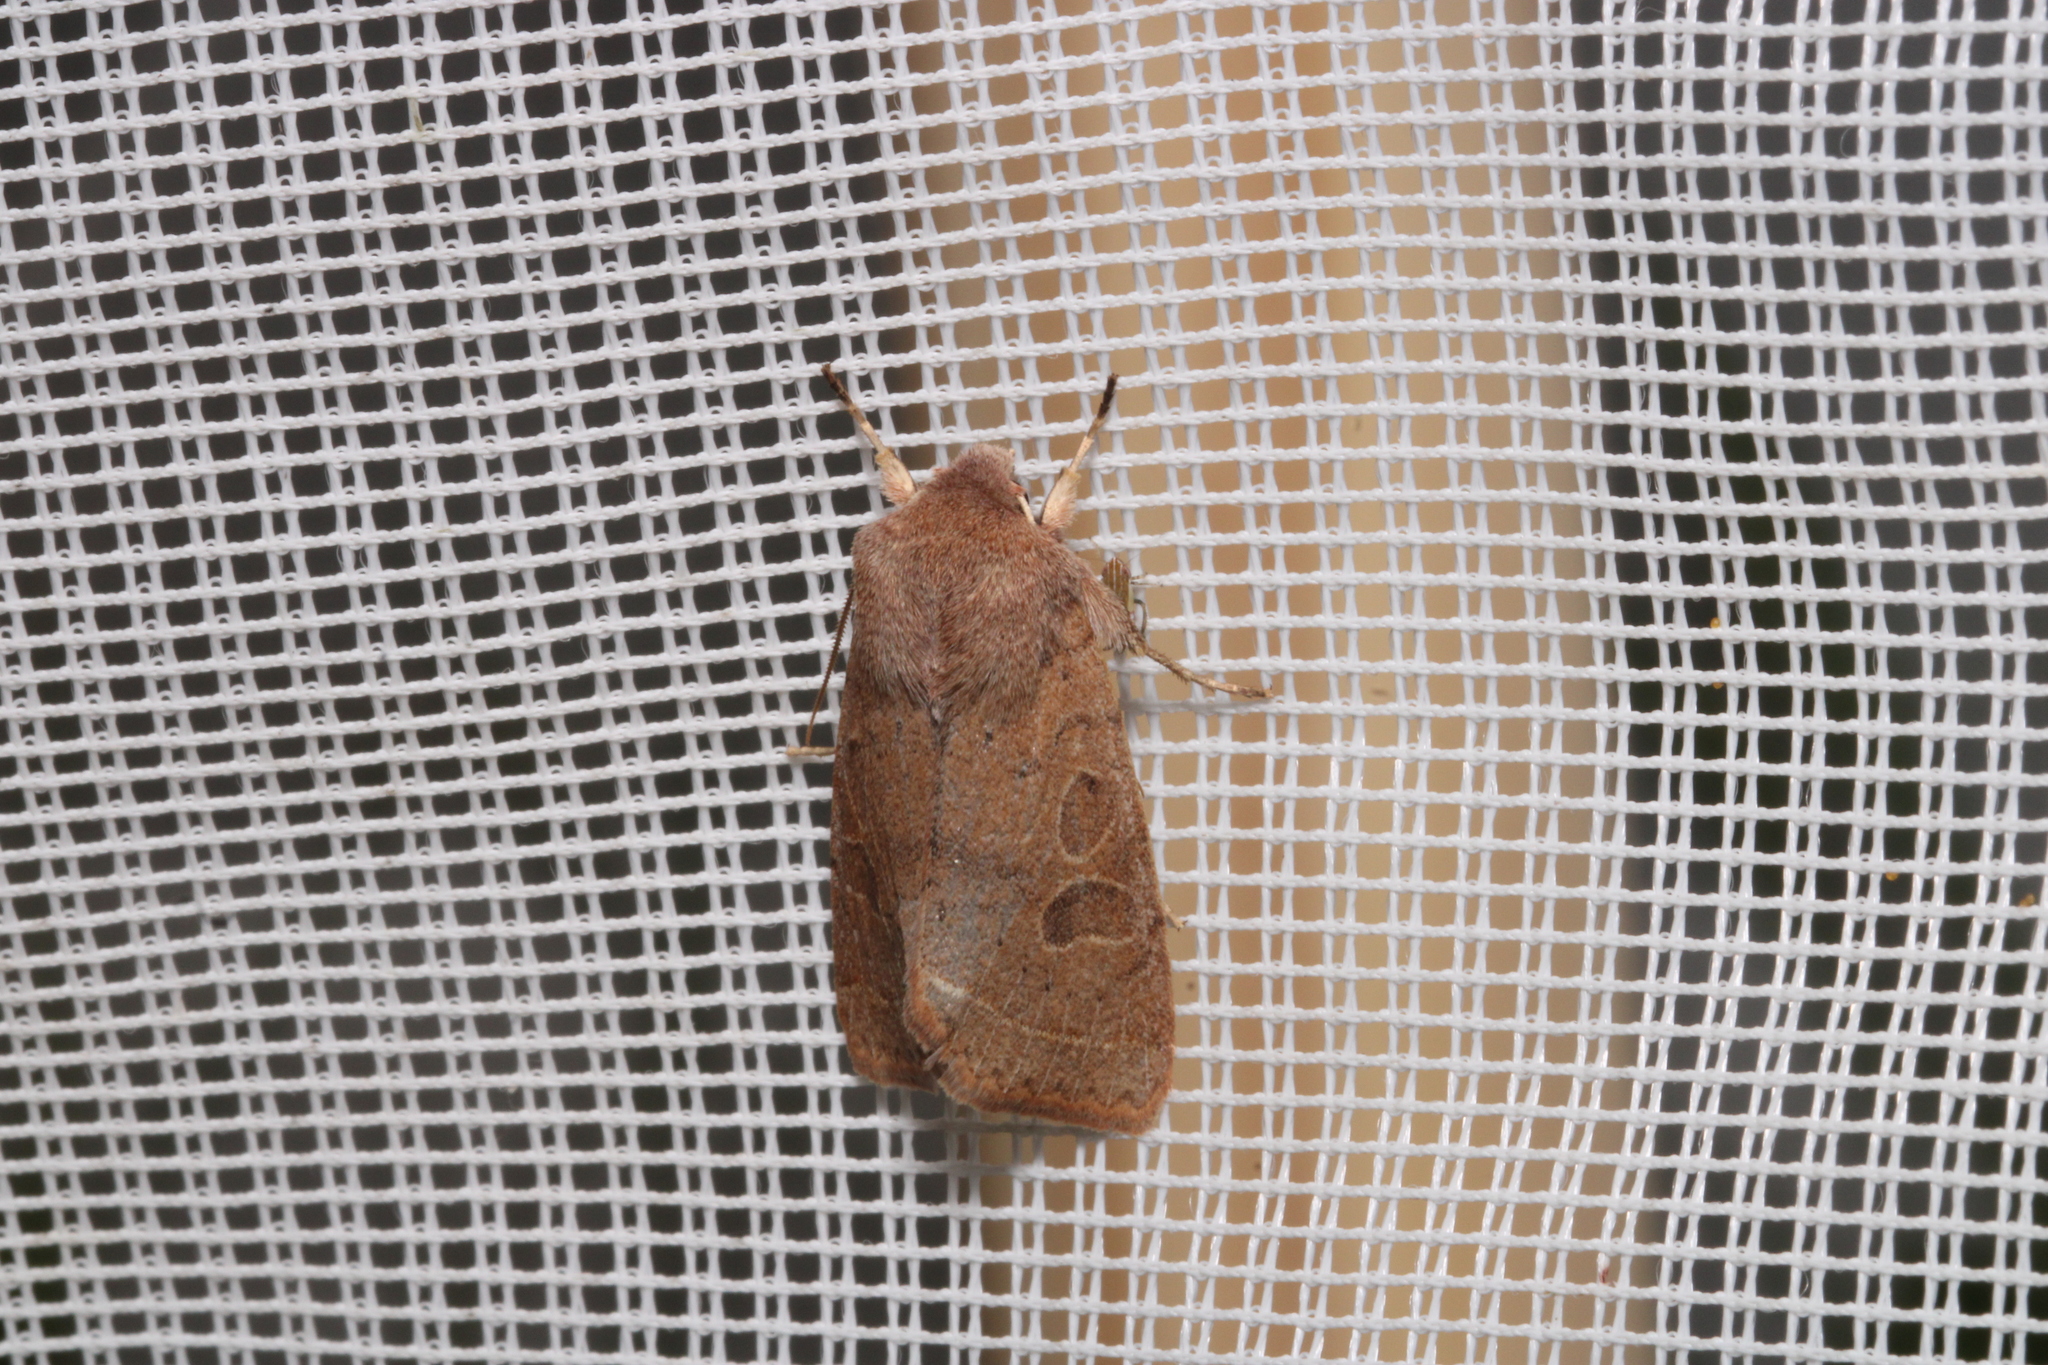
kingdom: Animalia
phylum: Arthropoda
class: Insecta
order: Lepidoptera
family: Noctuidae
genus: Orthosia
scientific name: Orthosia cerasi
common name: Common quaker
